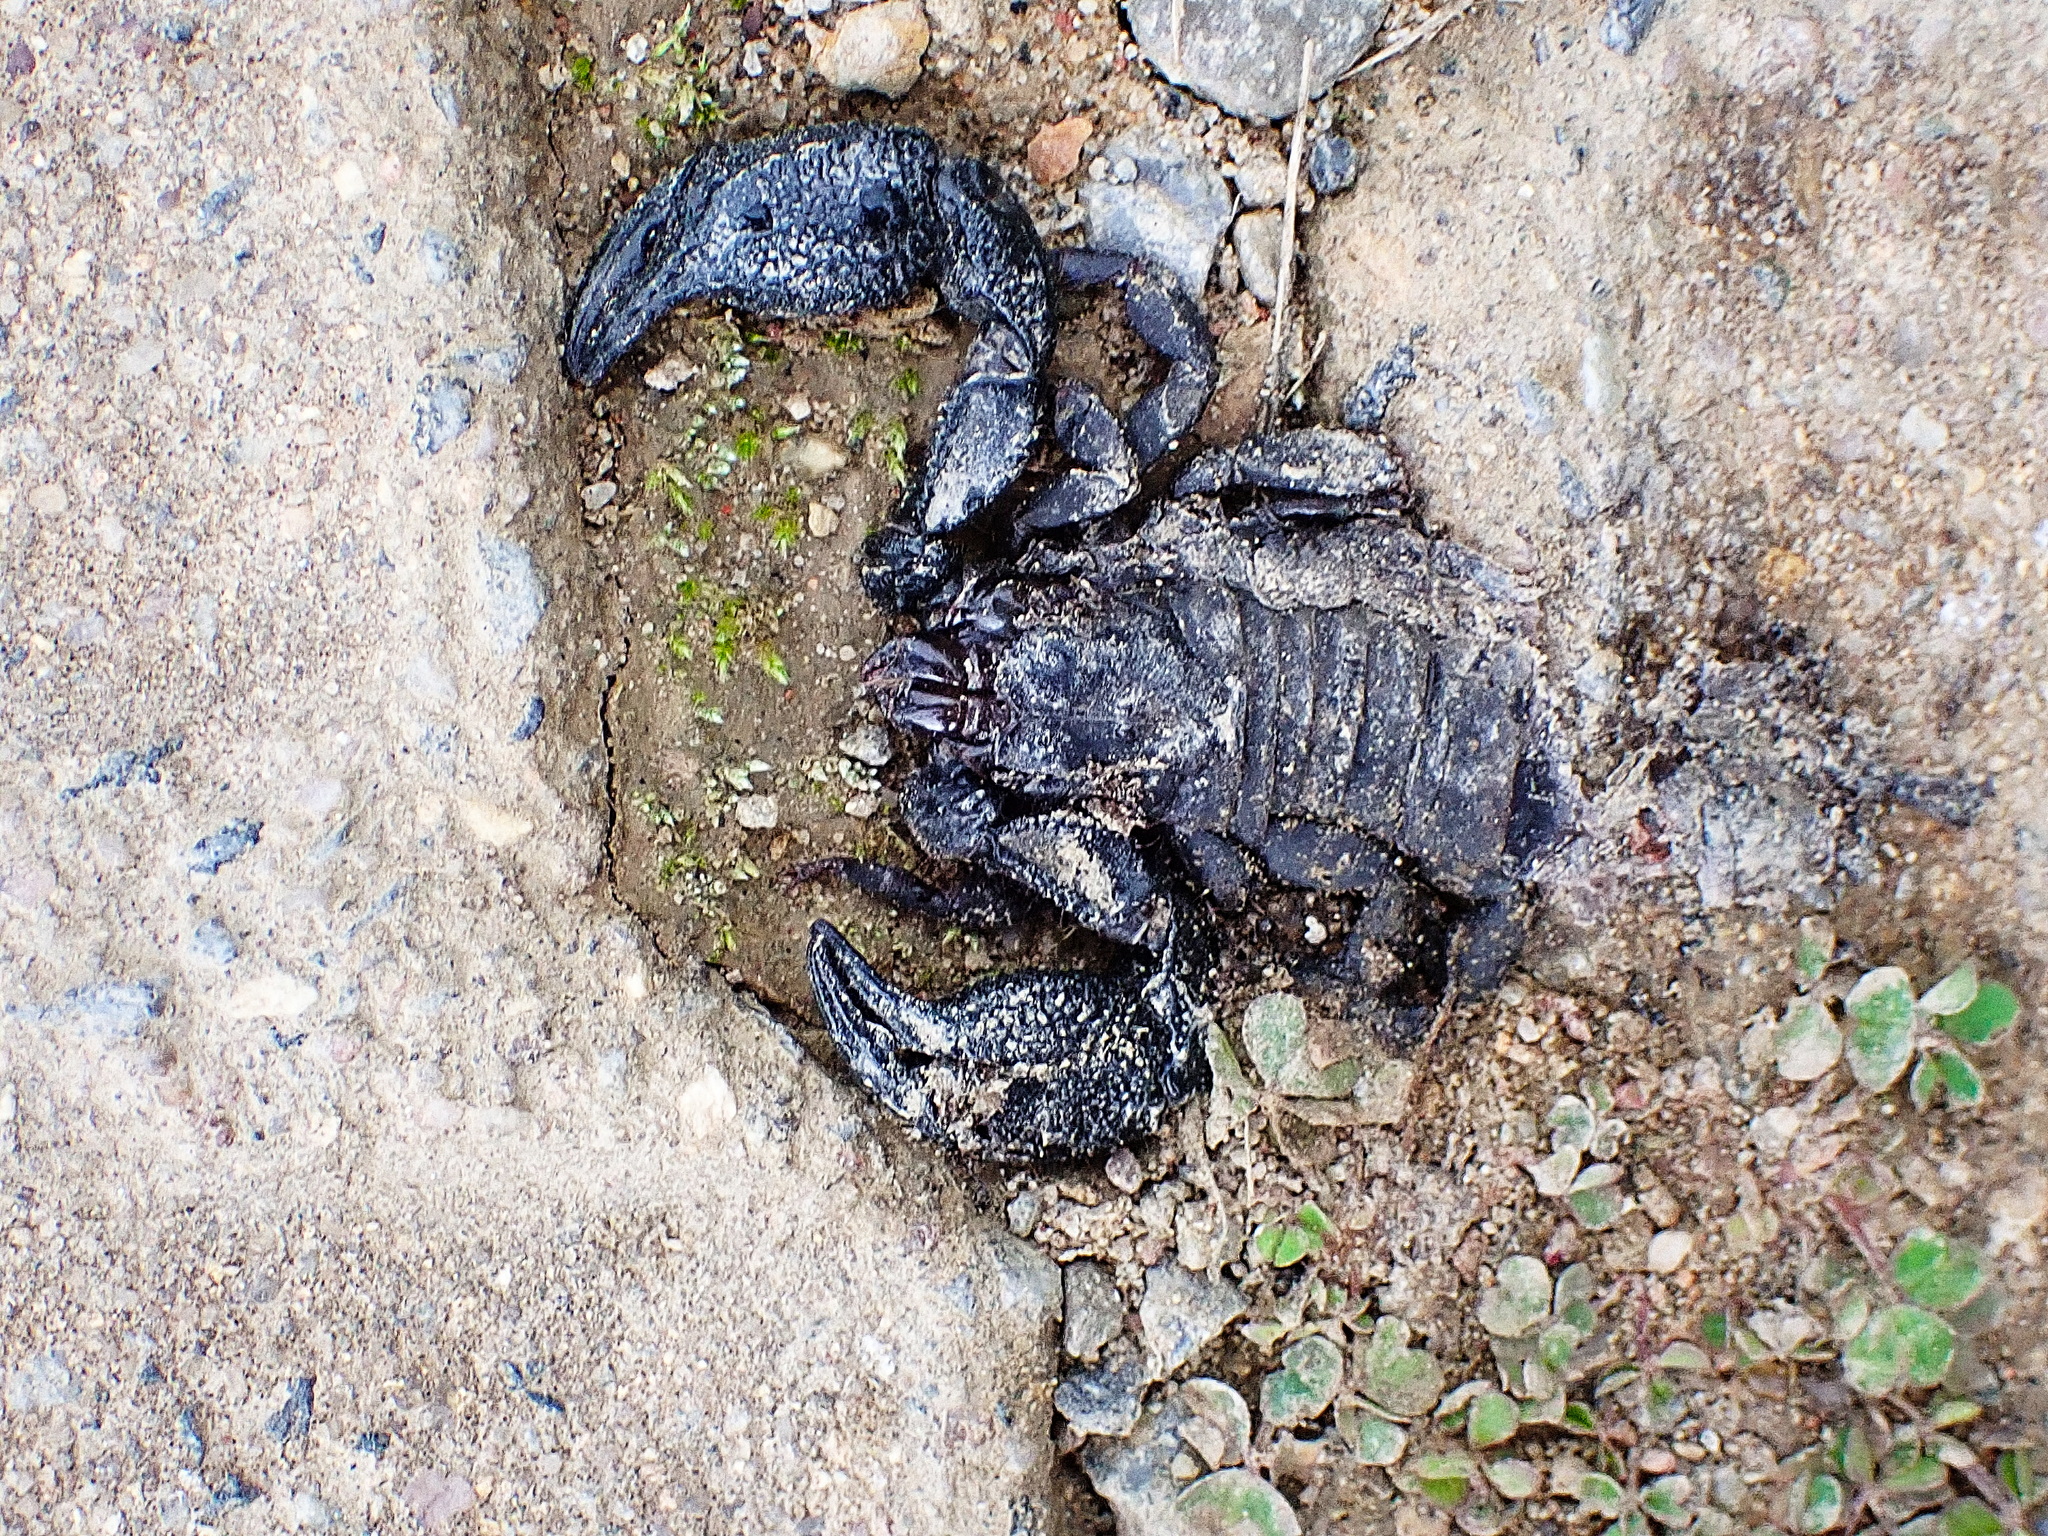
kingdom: Animalia
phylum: Arthropoda
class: Arachnida
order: Scorpiones
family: Hormuridae
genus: Opisthacanthus
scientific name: Opisthacanthus capensis
